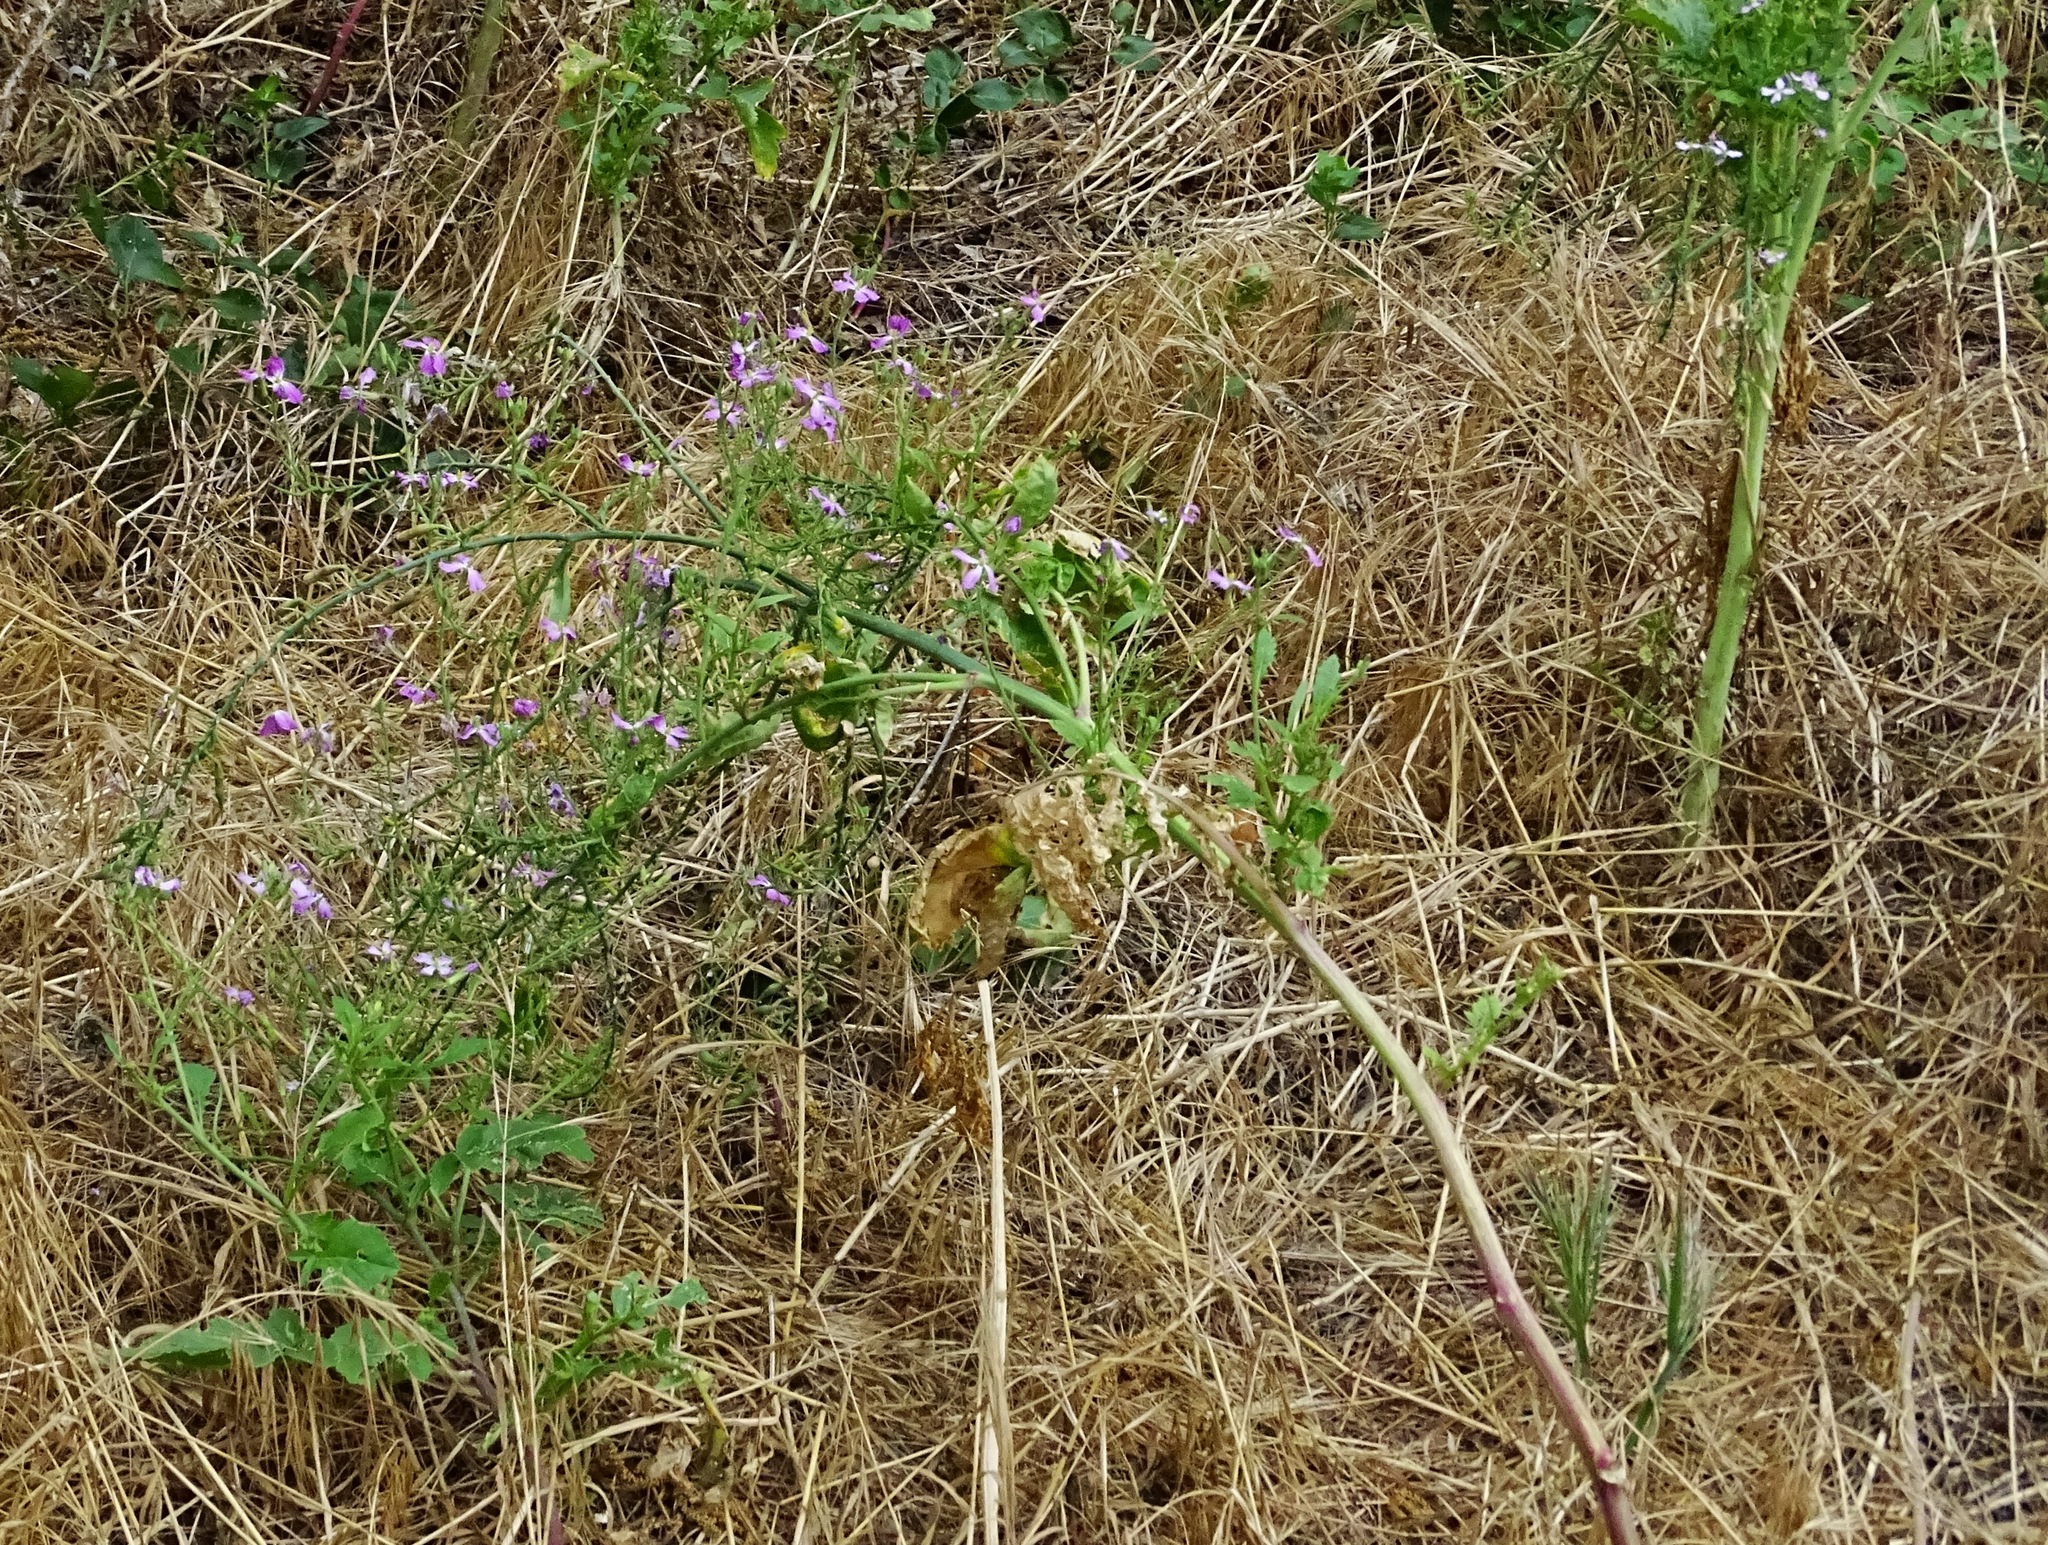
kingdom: Plantae
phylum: Tracheophyta
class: Magnoliopsida
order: Brassicales
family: Brassicaceae
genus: Raphanus
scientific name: Raphanus sativus
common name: Cultivated radish
